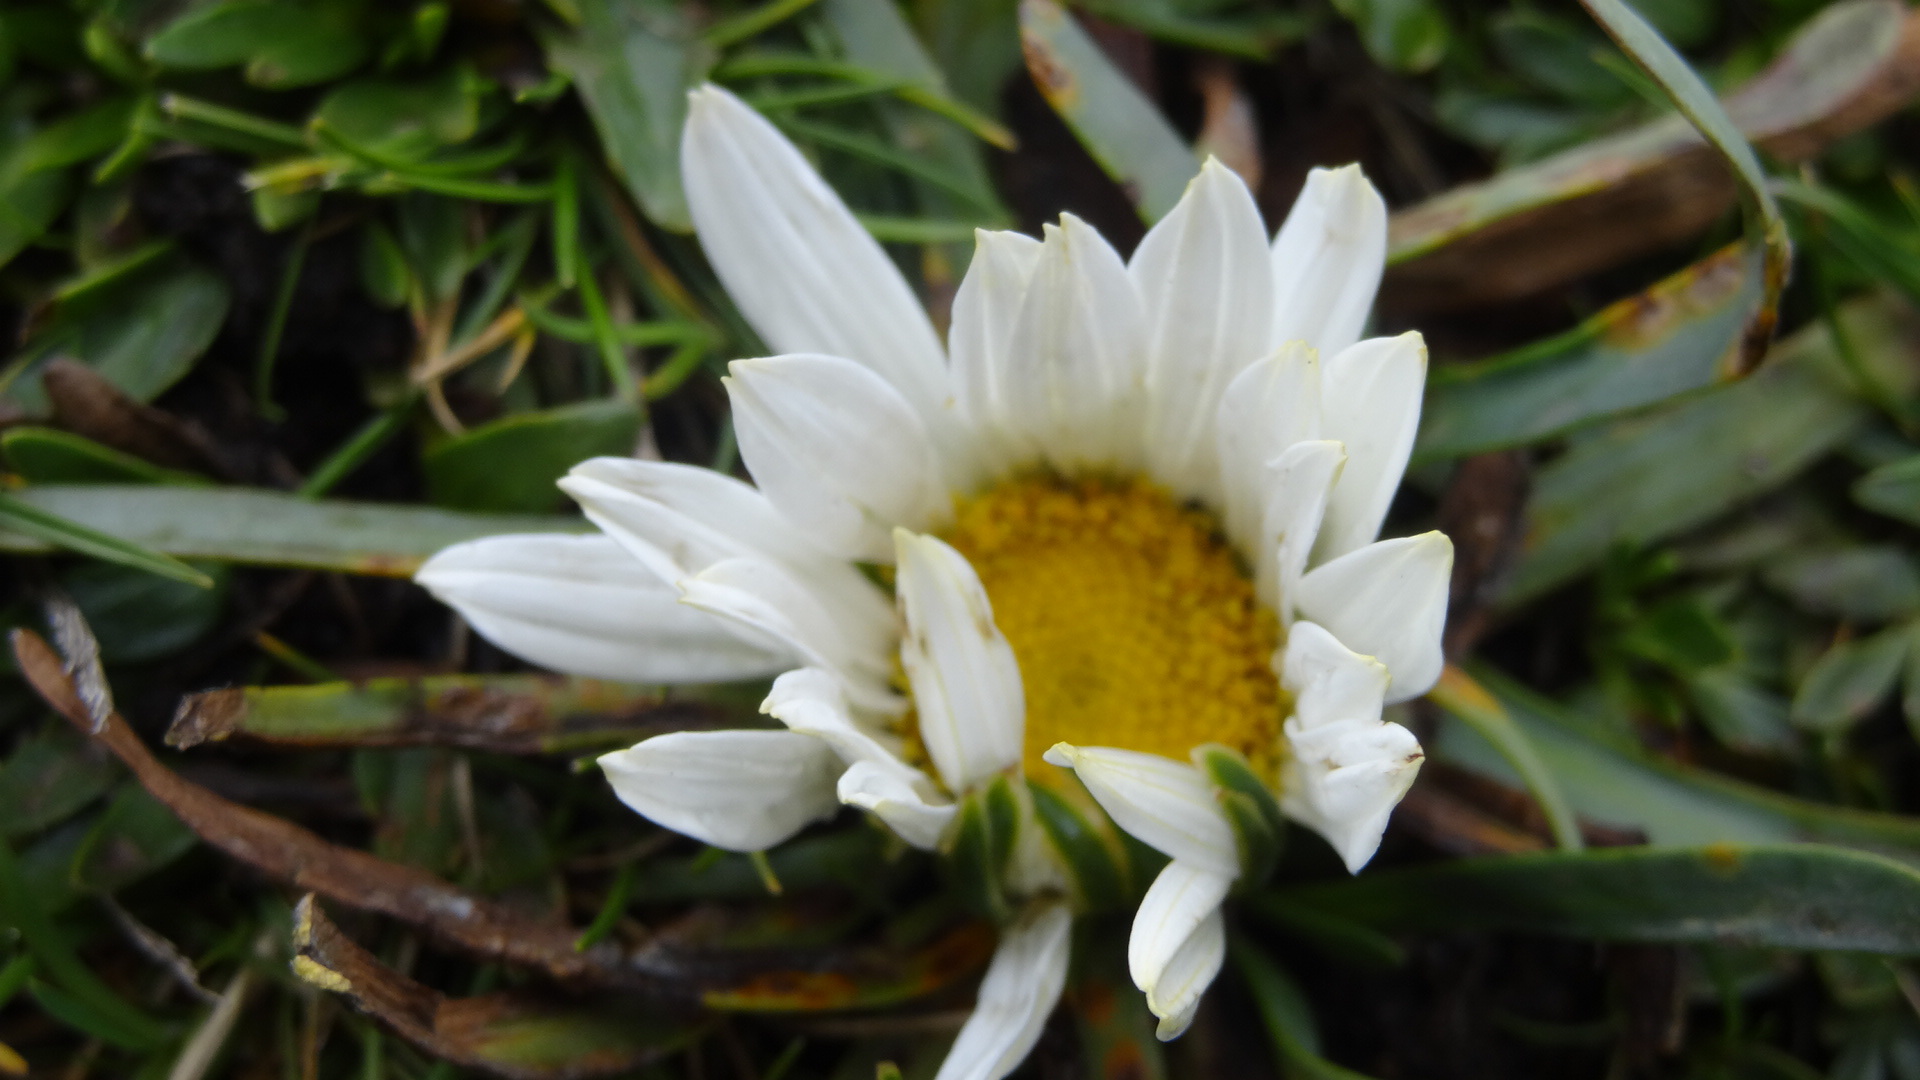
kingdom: Plantae
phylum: Tracheophyta
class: Magnoliopsida
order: Asterales
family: Asteraceae
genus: Rockhausenia
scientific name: Rockhausenia nubigena
